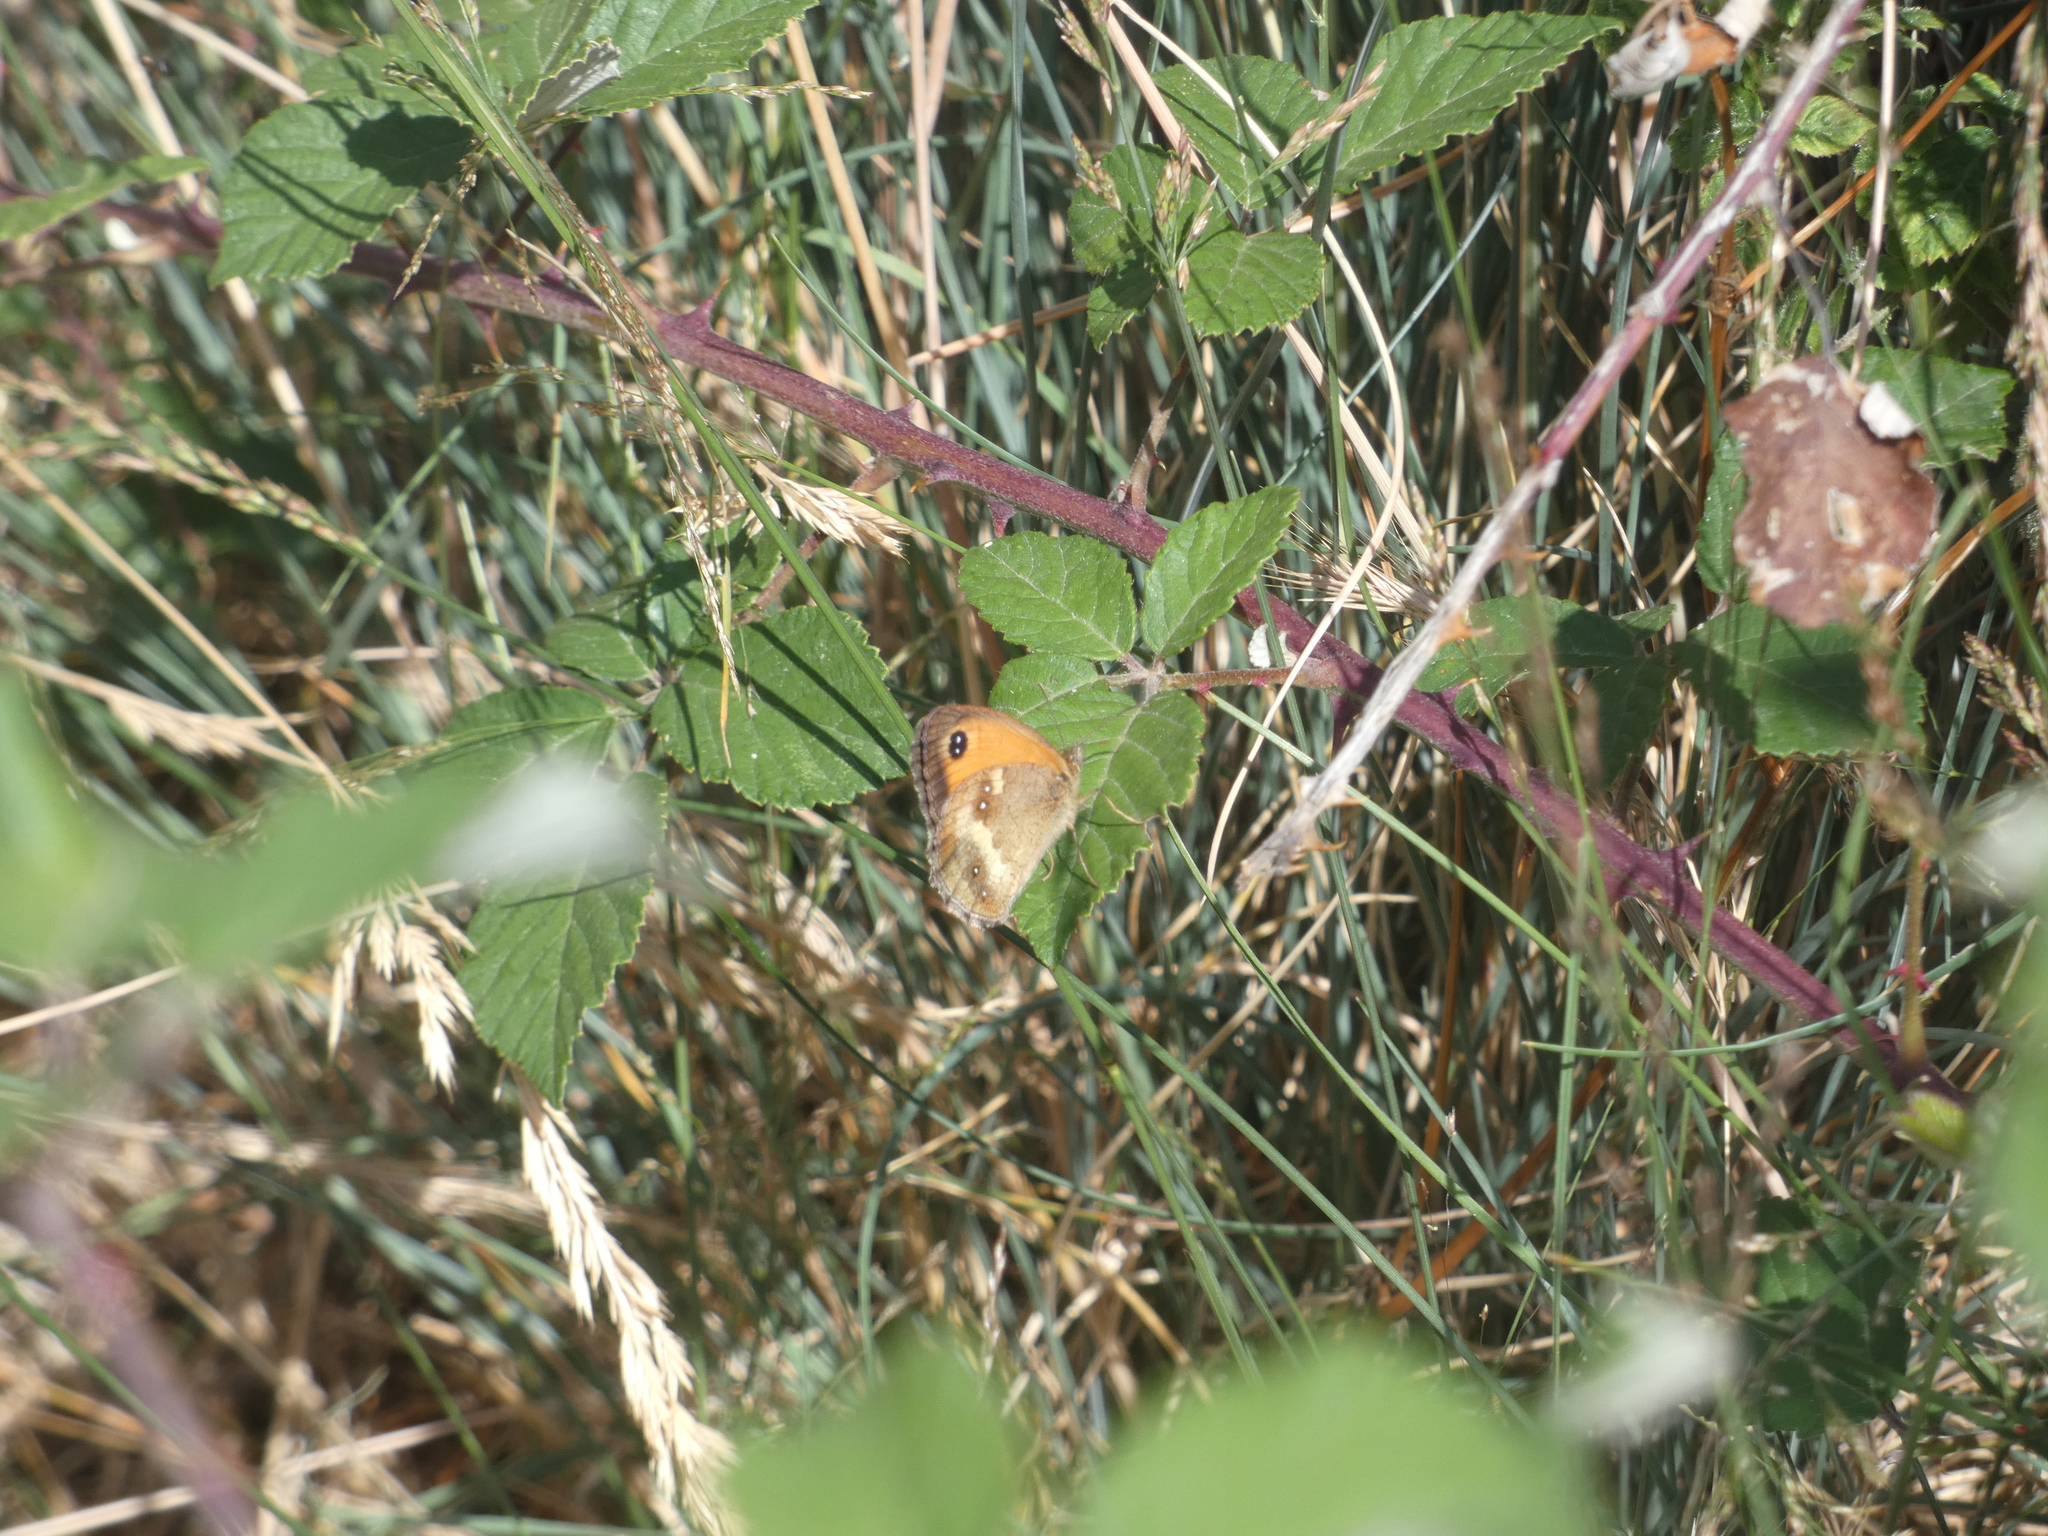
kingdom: Animalia
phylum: Arthropoda
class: Insecta
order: Lepidoptera
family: Nymphalidae
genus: Pyronia
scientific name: Pyronia tithonus
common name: Gatekeeper
